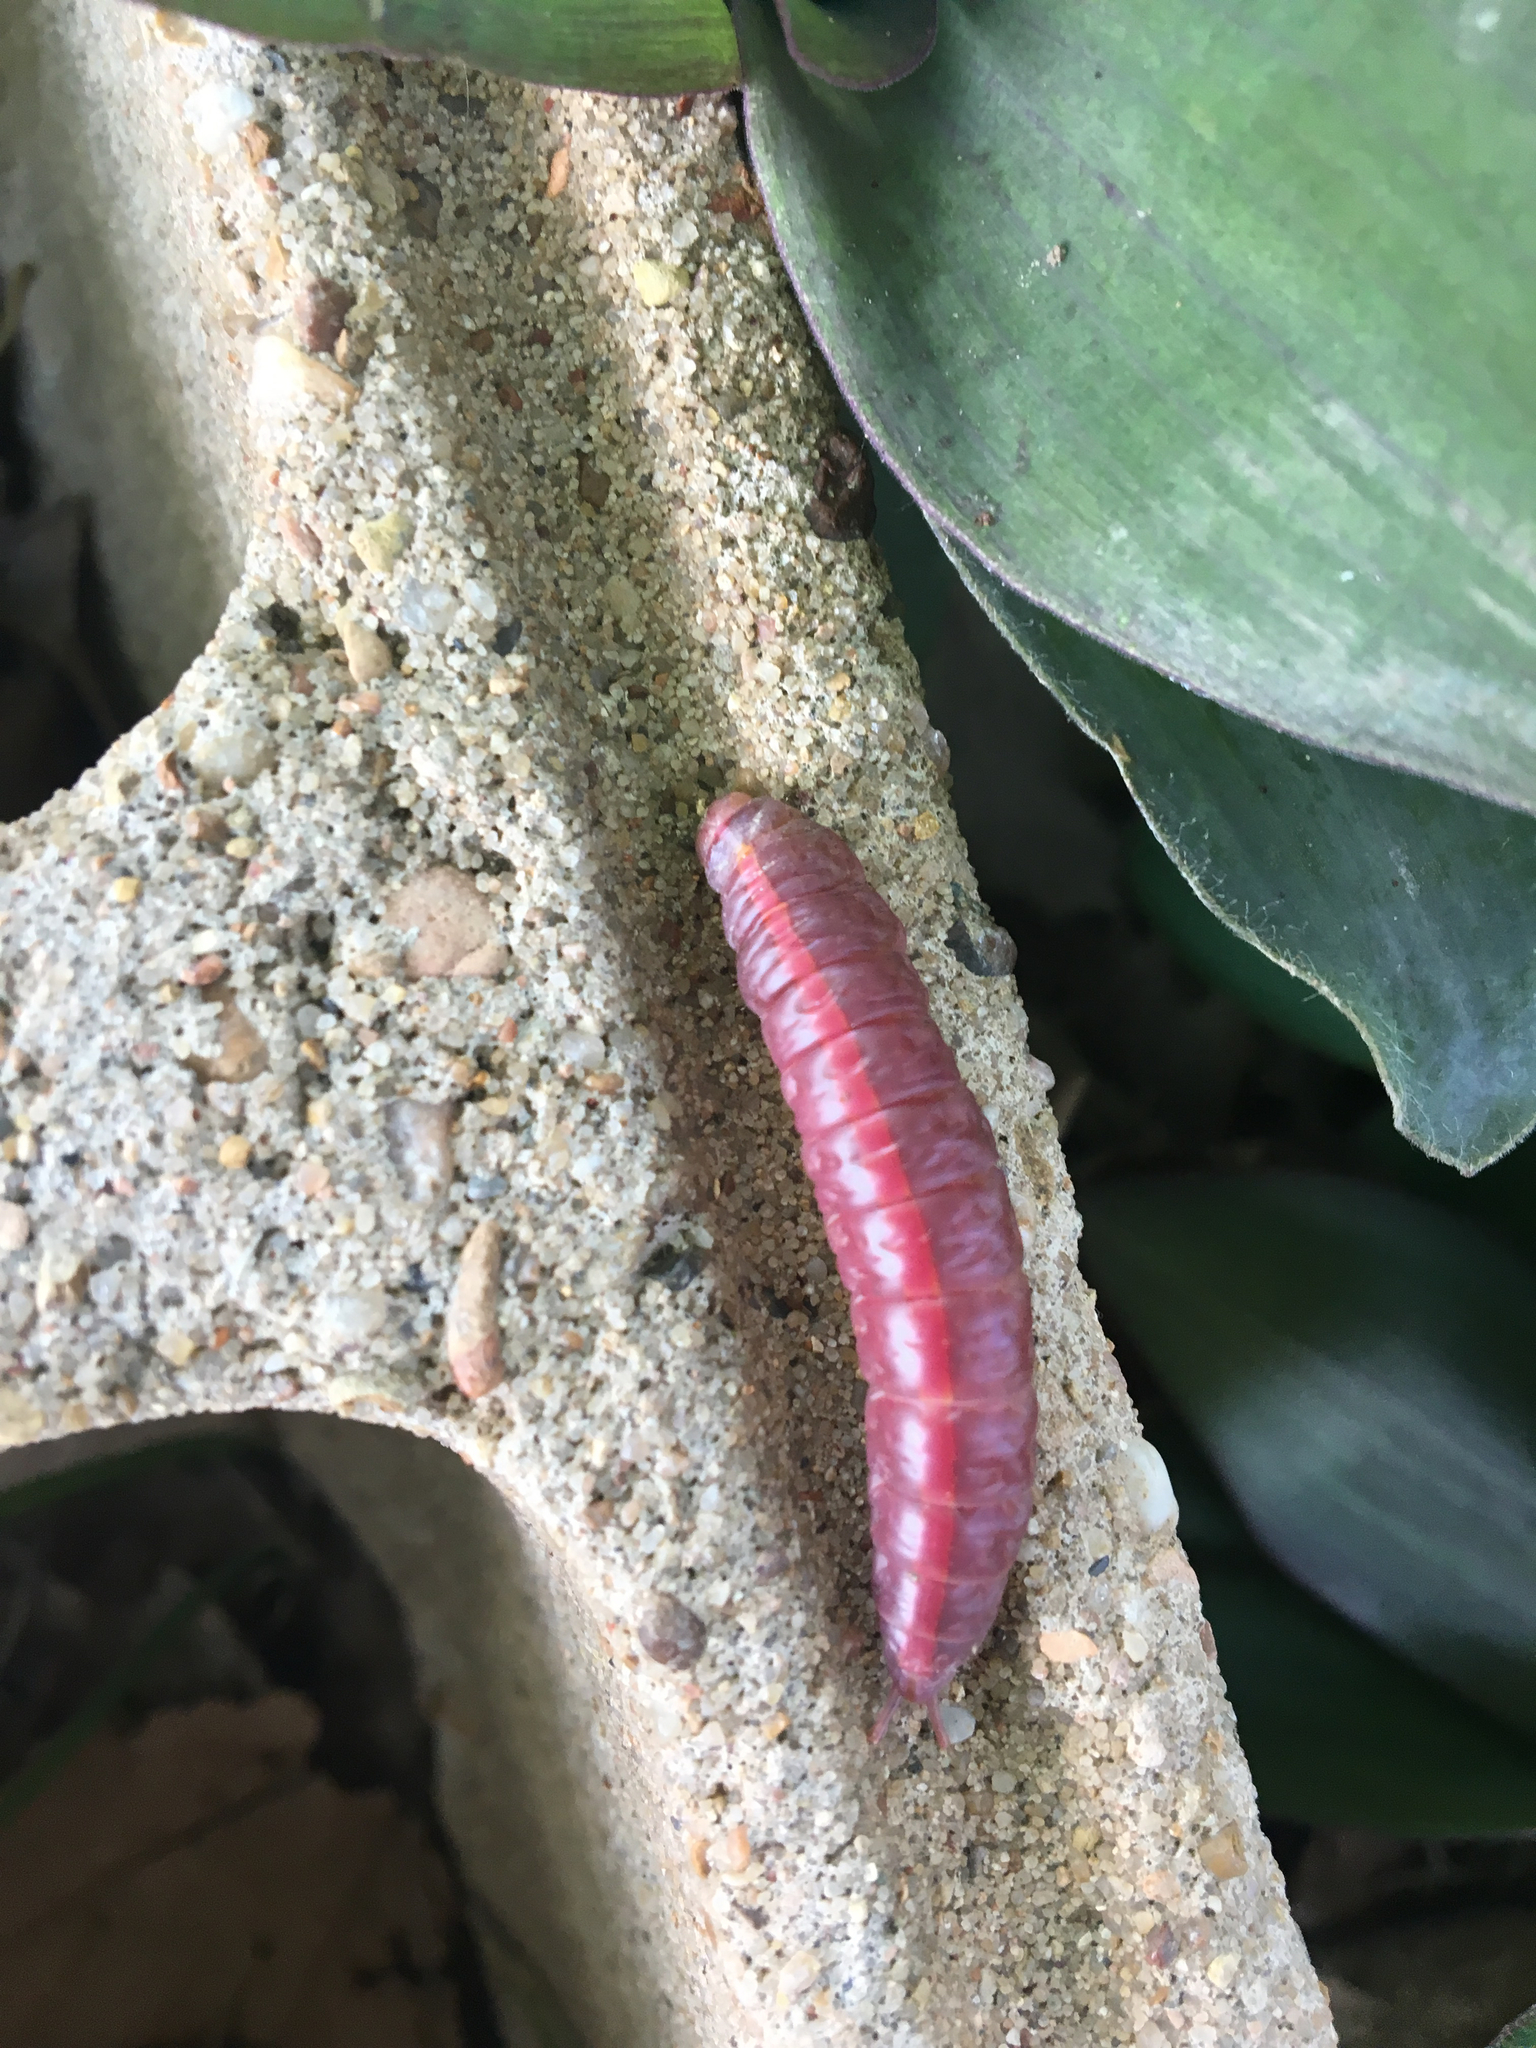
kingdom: Animalia
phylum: Arthropoda
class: Insecta
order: Lepidoptera
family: Notodontidae
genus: Misogada
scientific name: Misogada unicolor
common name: Drab prominent
